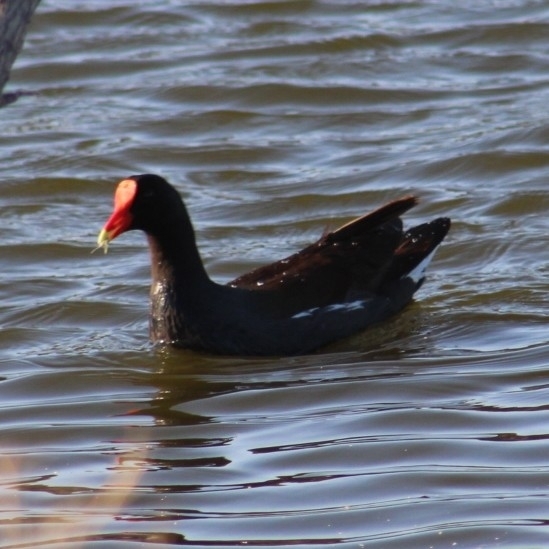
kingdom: Animalia
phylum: Chordata
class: Aves
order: Gruiformes
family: Rallidae
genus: Gallinula
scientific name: Gallinula chloropus
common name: Common moorhen
